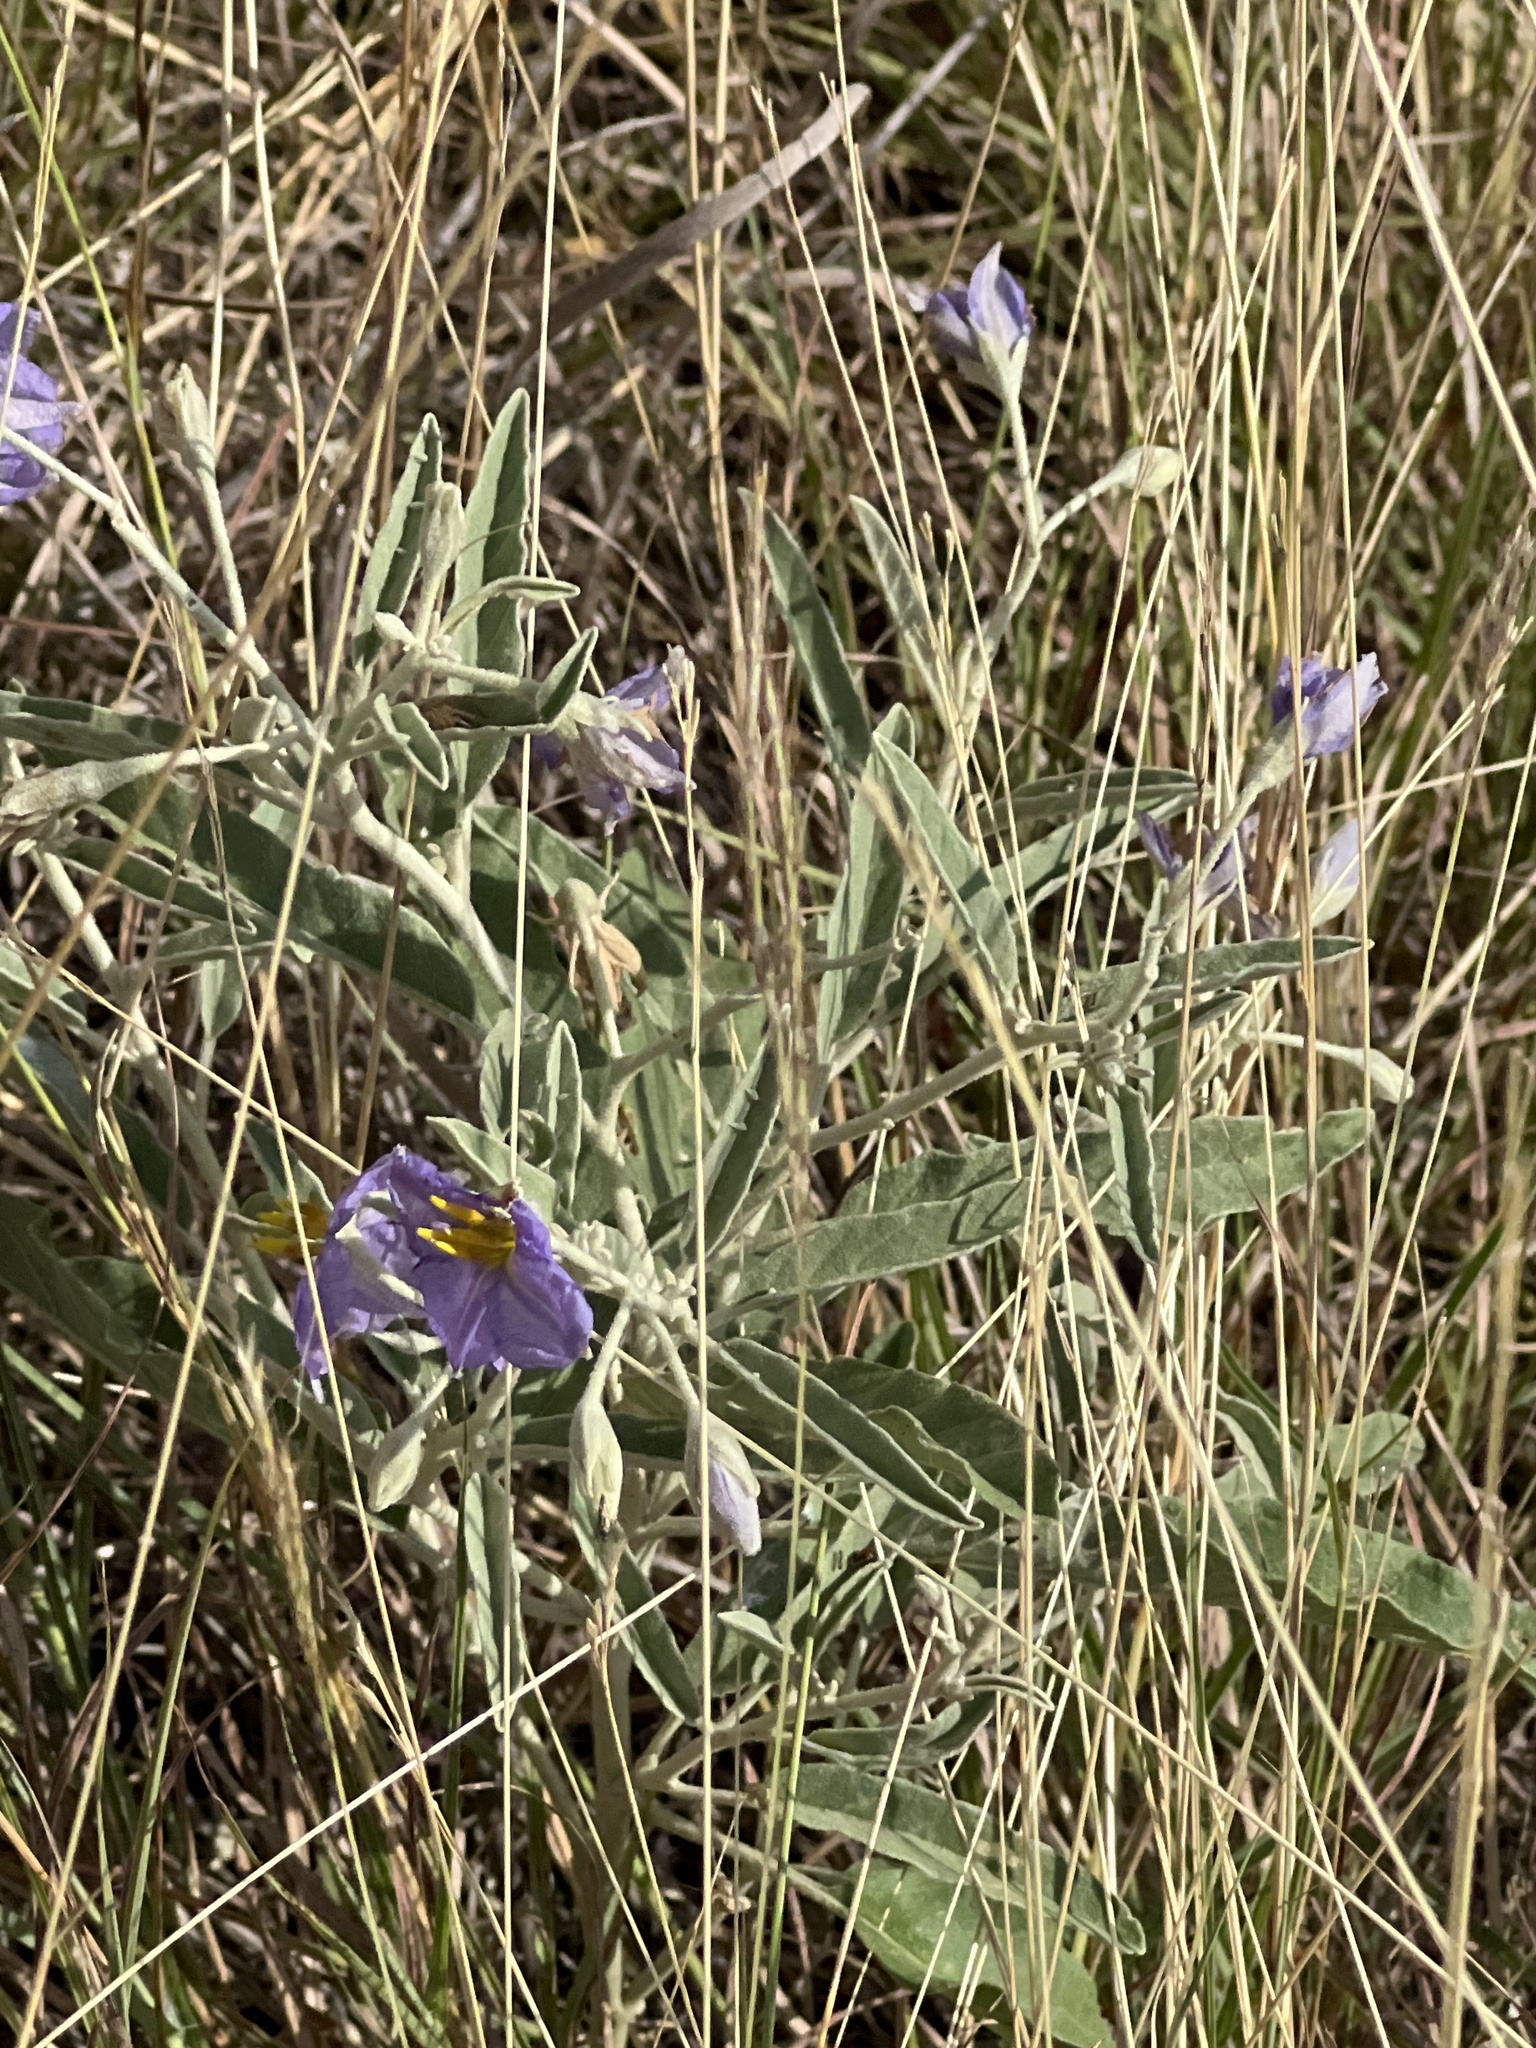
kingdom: Plantae
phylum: Tracheophyta
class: Magnoliopsida
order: Solanales
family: Solanaceae
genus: Solanum
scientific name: Solanum elaeagnifolium
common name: Silverleaf nightshade
